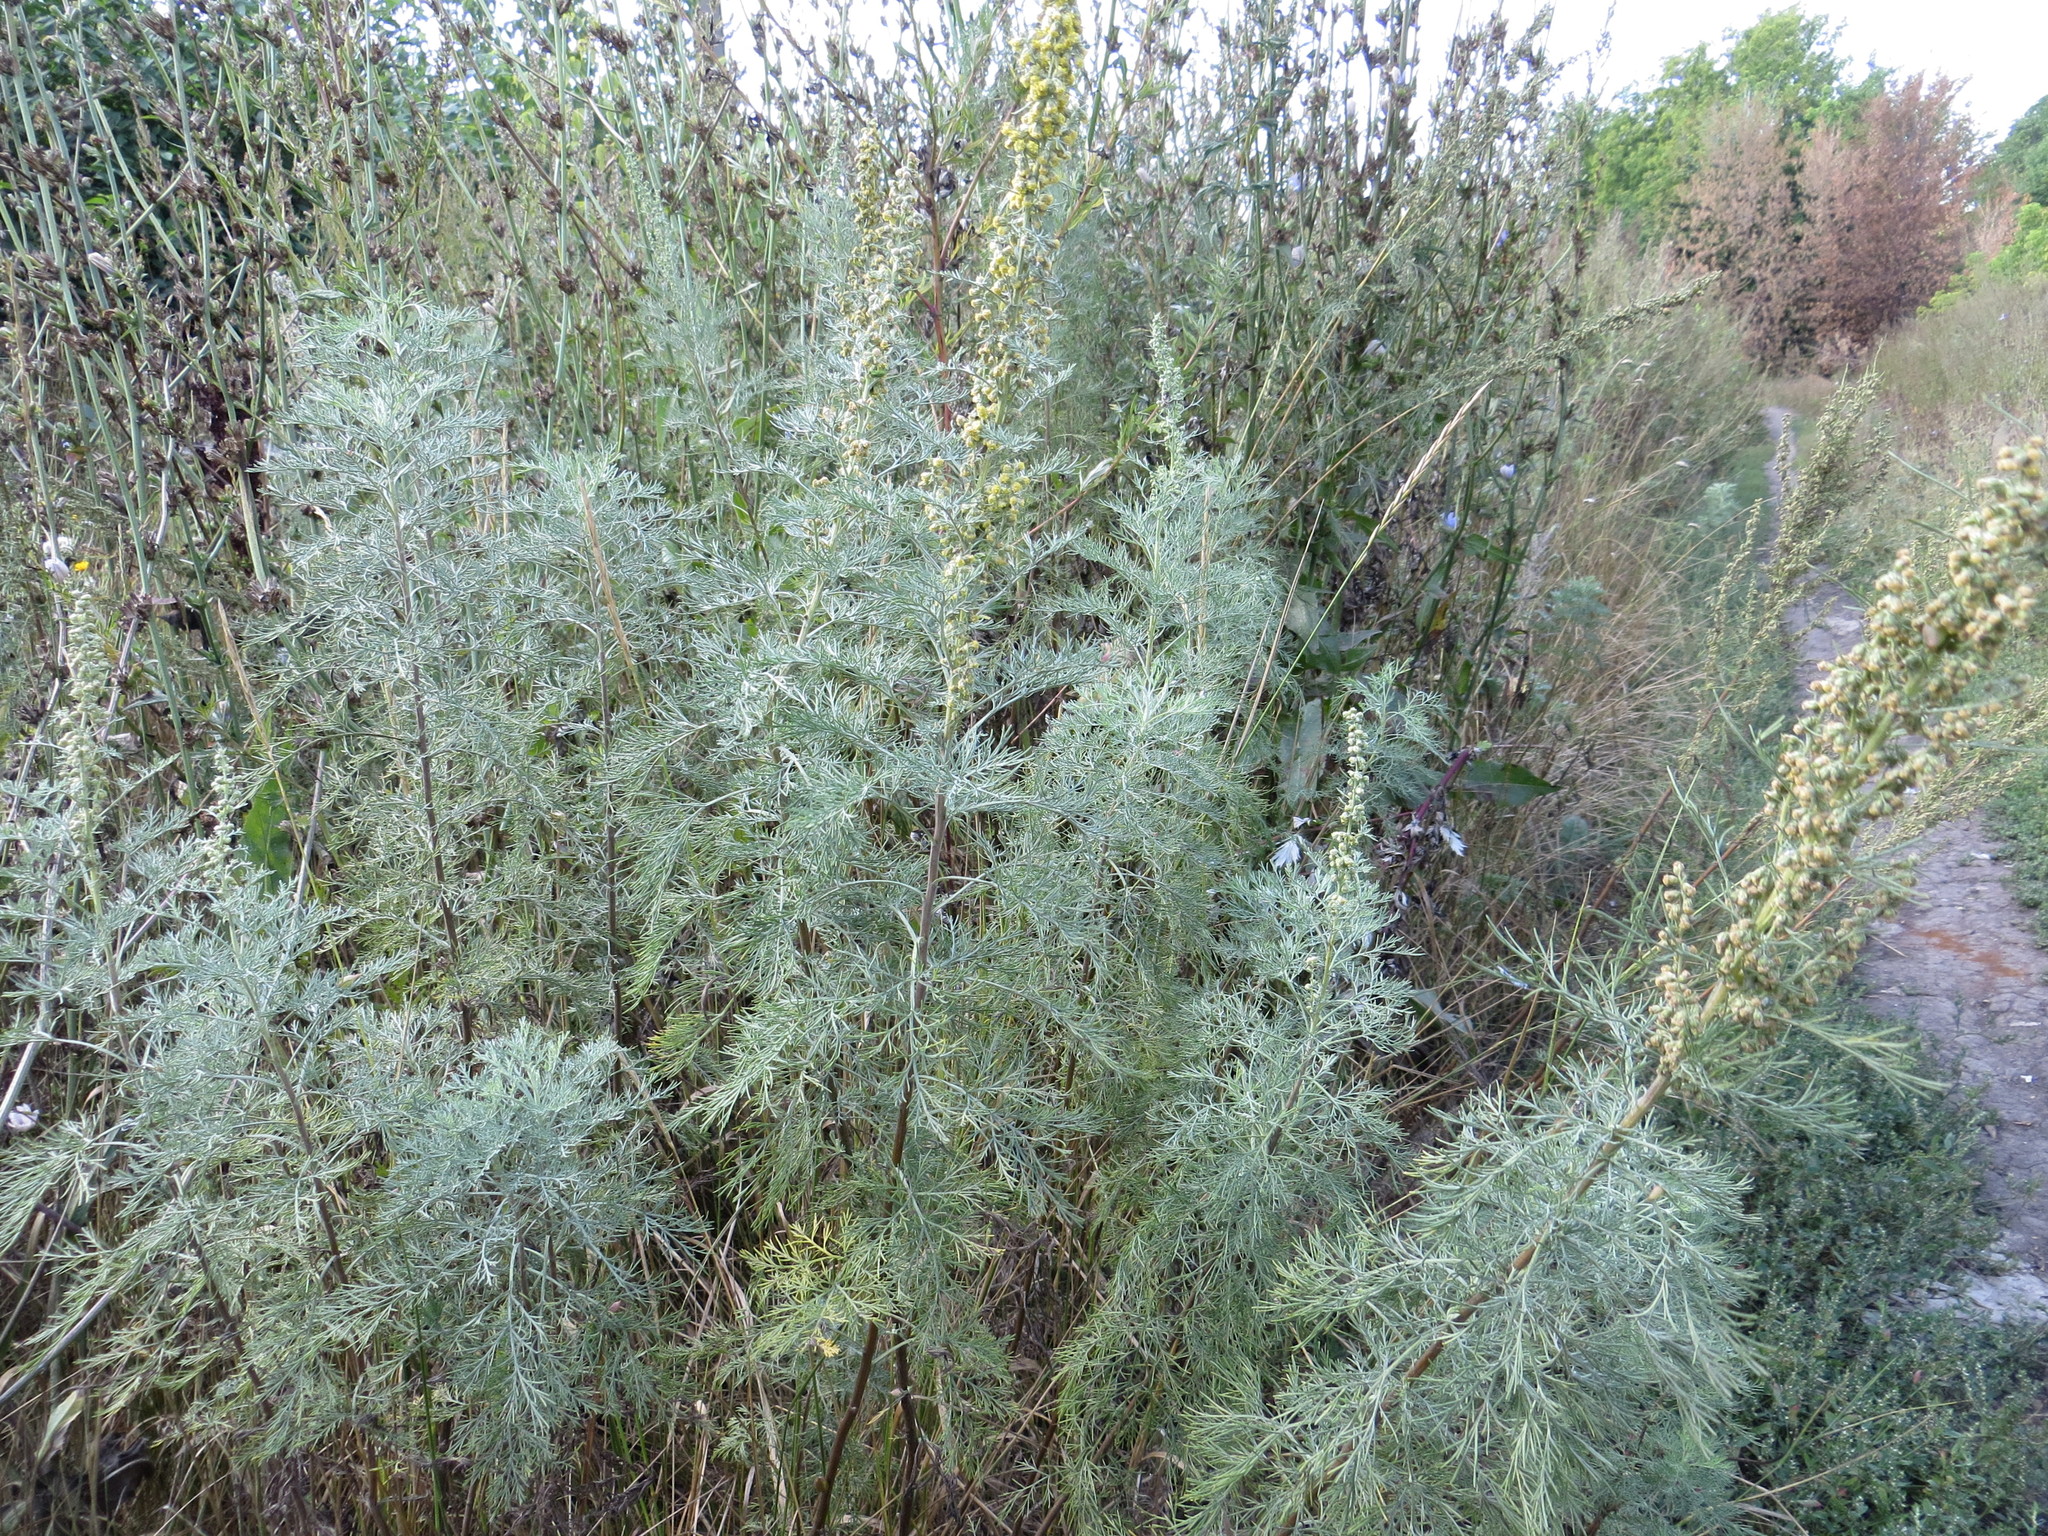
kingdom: Plantae
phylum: Tracheophyta
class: Magnoliopsida
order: Asterales
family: Asteraceae
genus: Artemisia
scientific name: Artemisia abrotanum
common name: Southernwood
